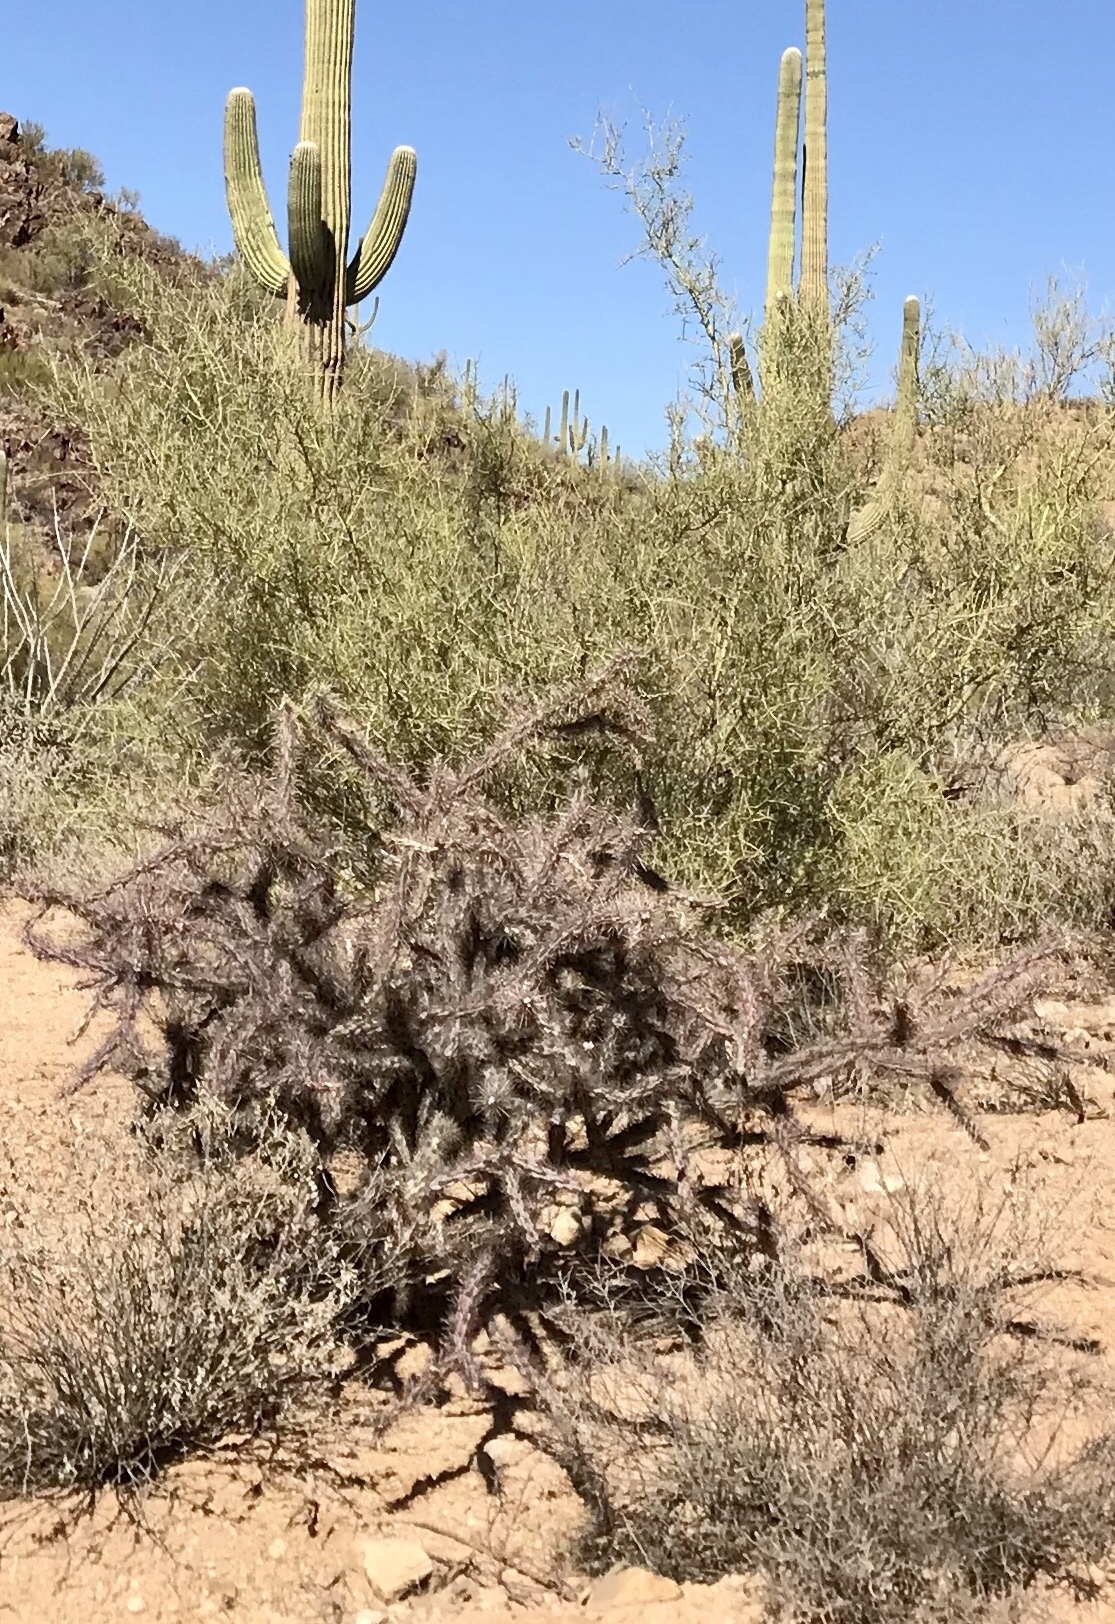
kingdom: Plantae
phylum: Tracheophyta
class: Magnoliopsida
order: Caryophyllales
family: Cactaceae
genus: Cylindropuntia
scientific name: Cylindropuntia acanthocarpa
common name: Buckhorn cholla
